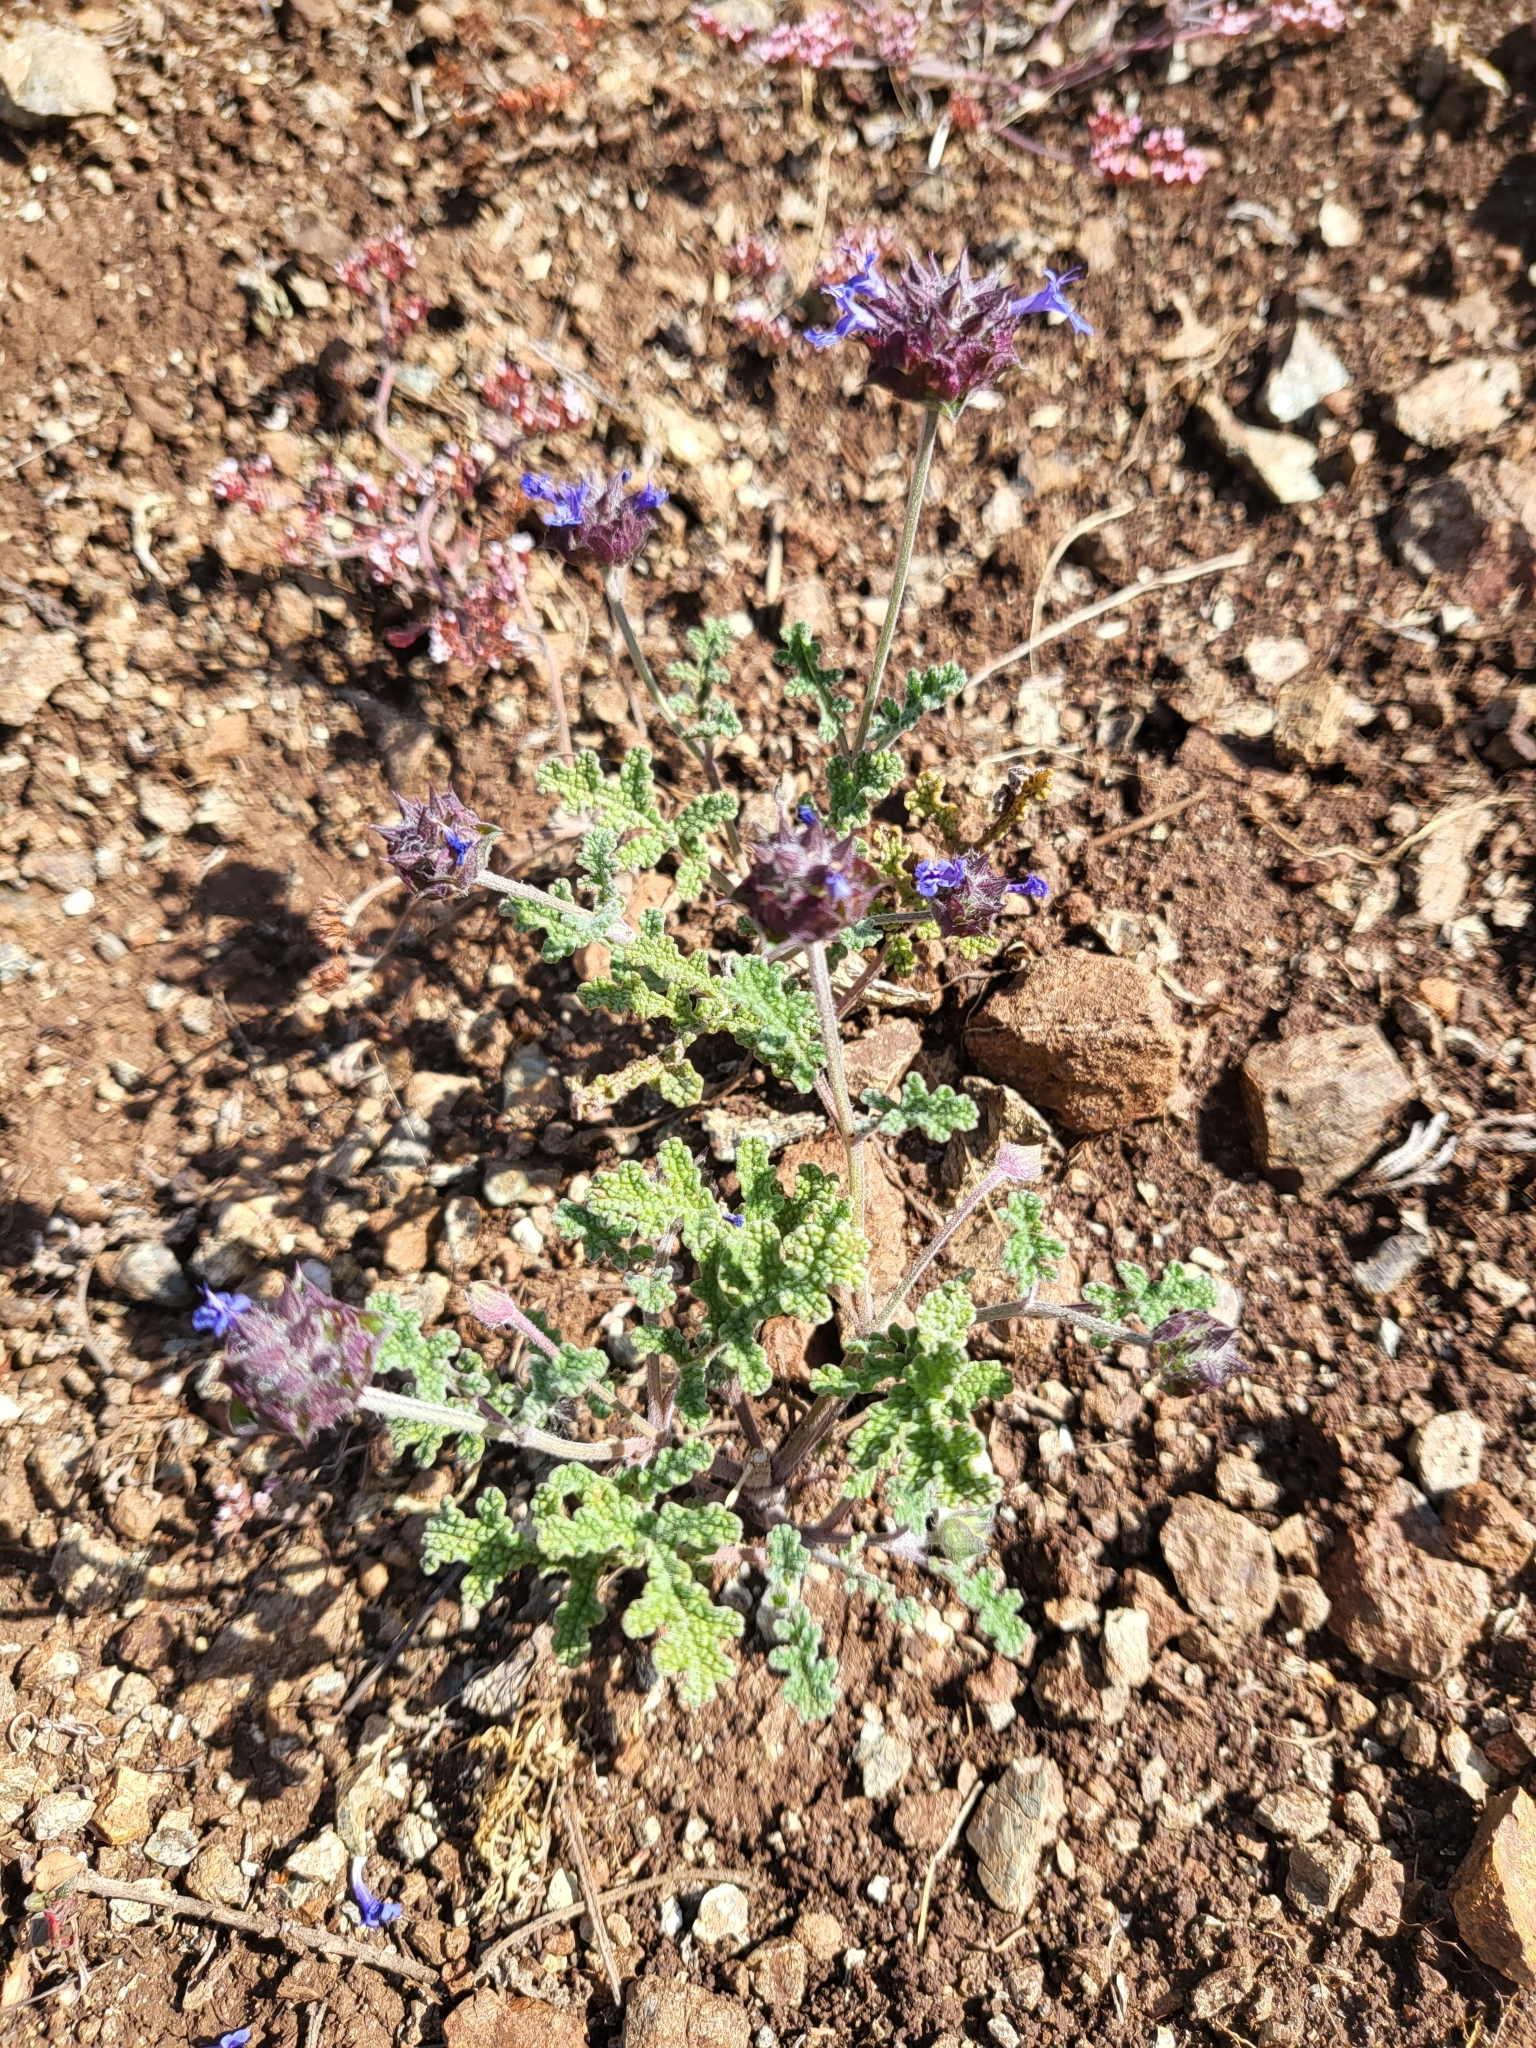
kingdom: Plantae
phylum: Tracheophyta
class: Magnoliopsida
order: Lamiales
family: Lamiaceae
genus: Salvia
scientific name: Salvia columbariae
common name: Chia
